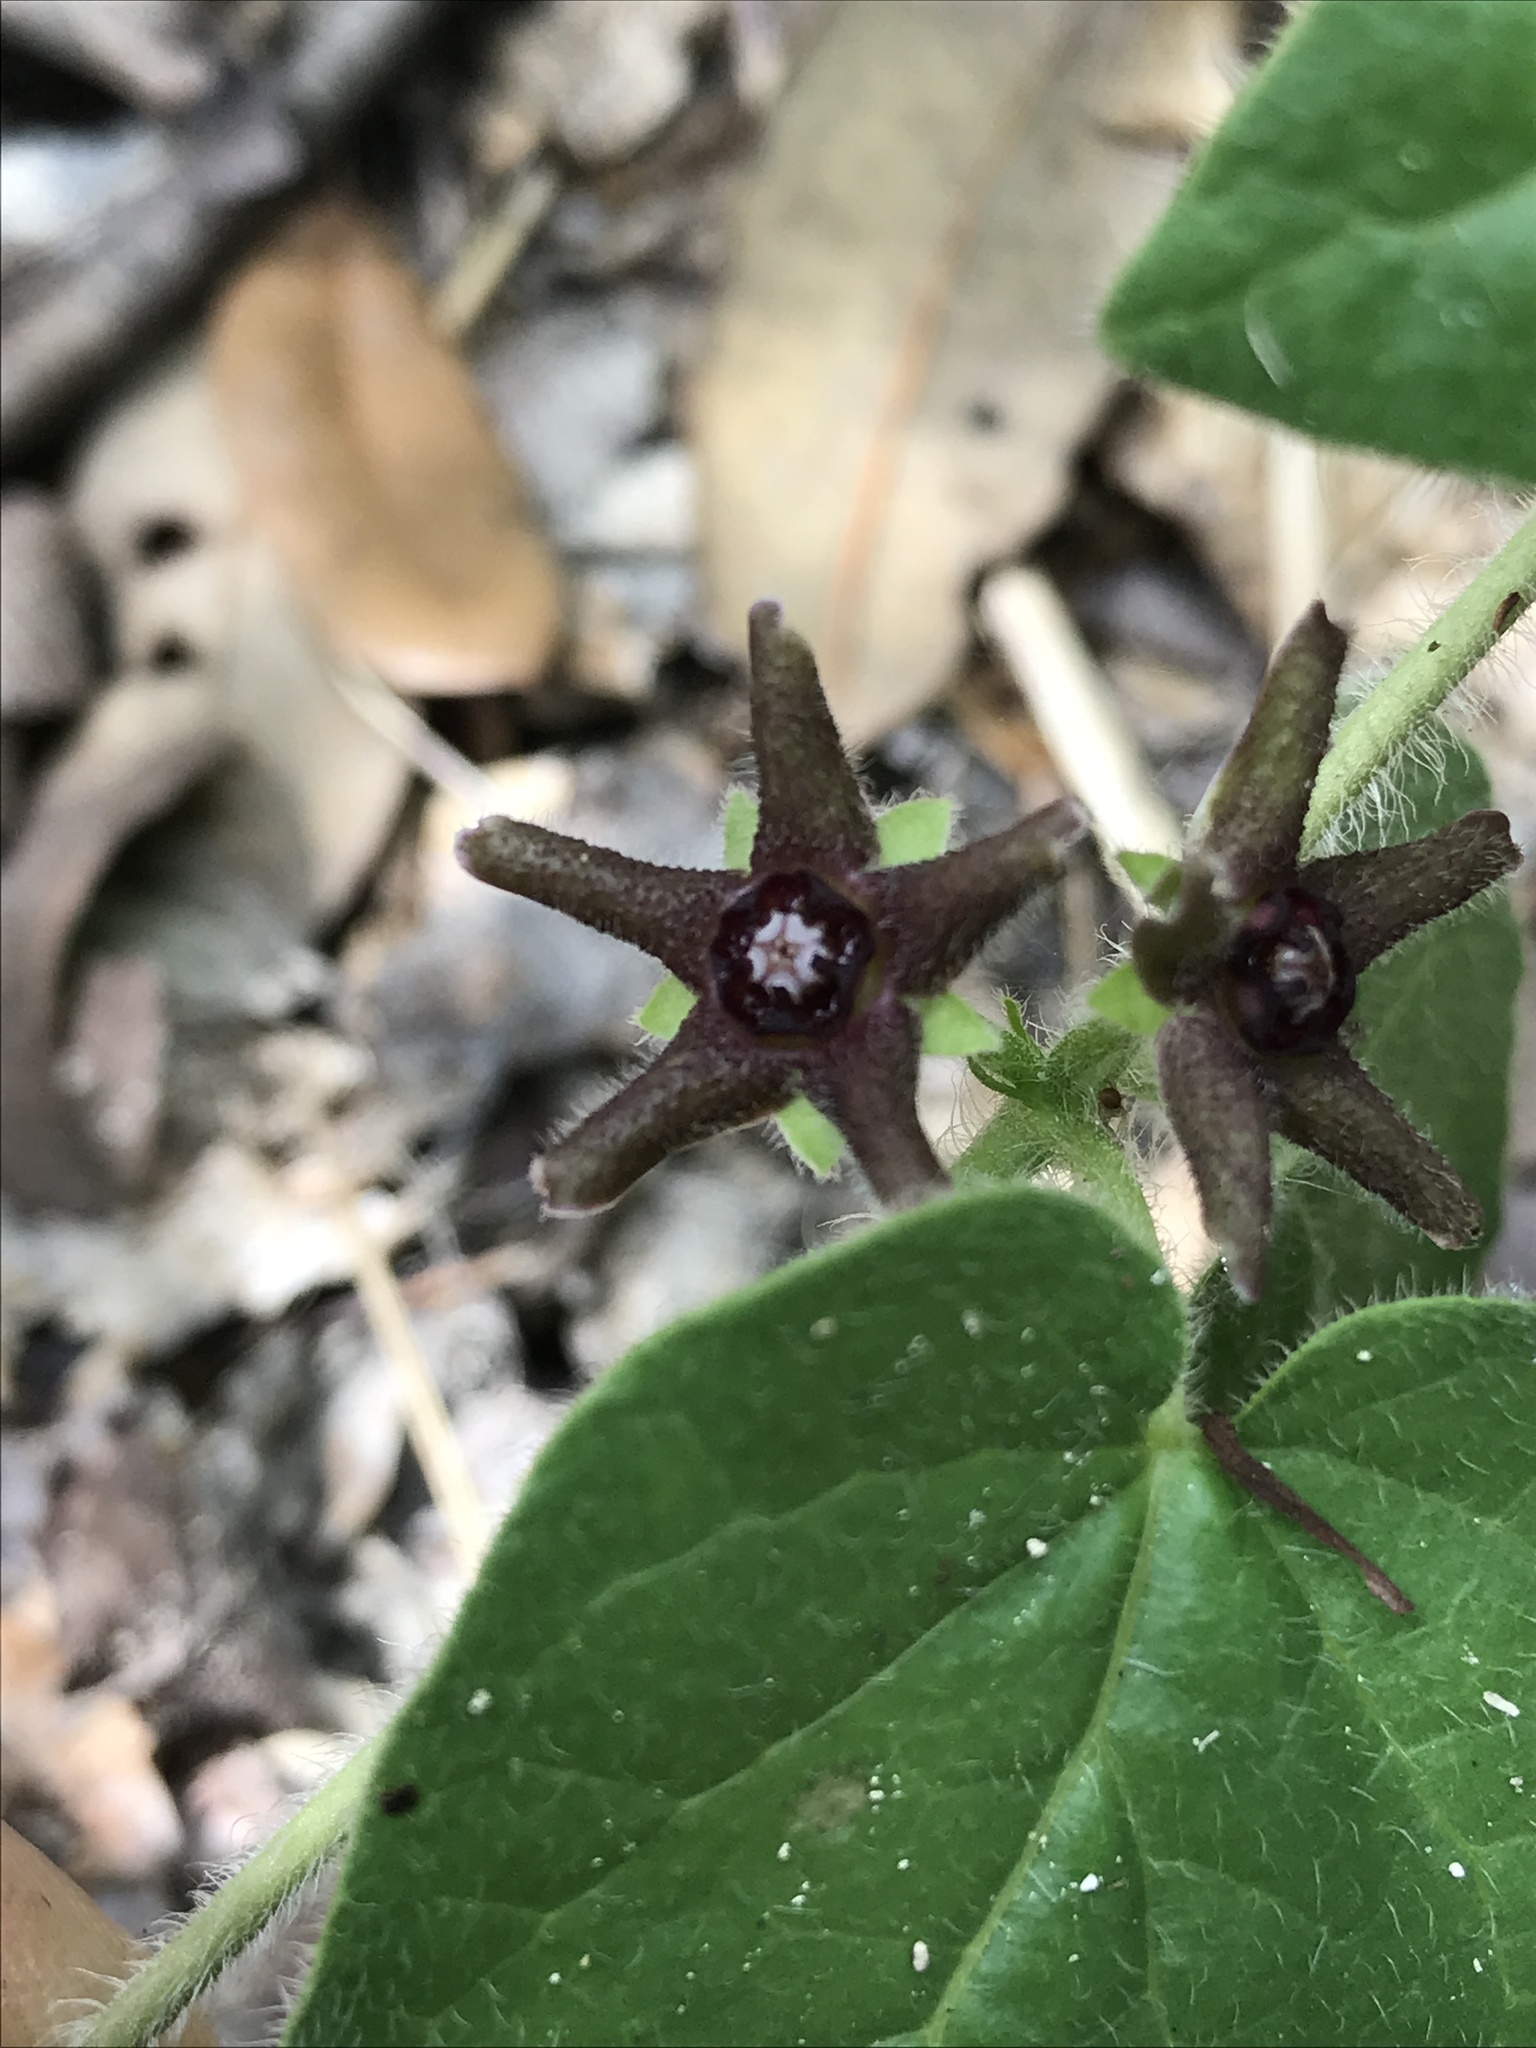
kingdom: Plantae
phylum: Tracheophyta
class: Magnoliopsida
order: Gentianales
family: Apocynaceae
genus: Chthamalia
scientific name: Chthamalia biflora
